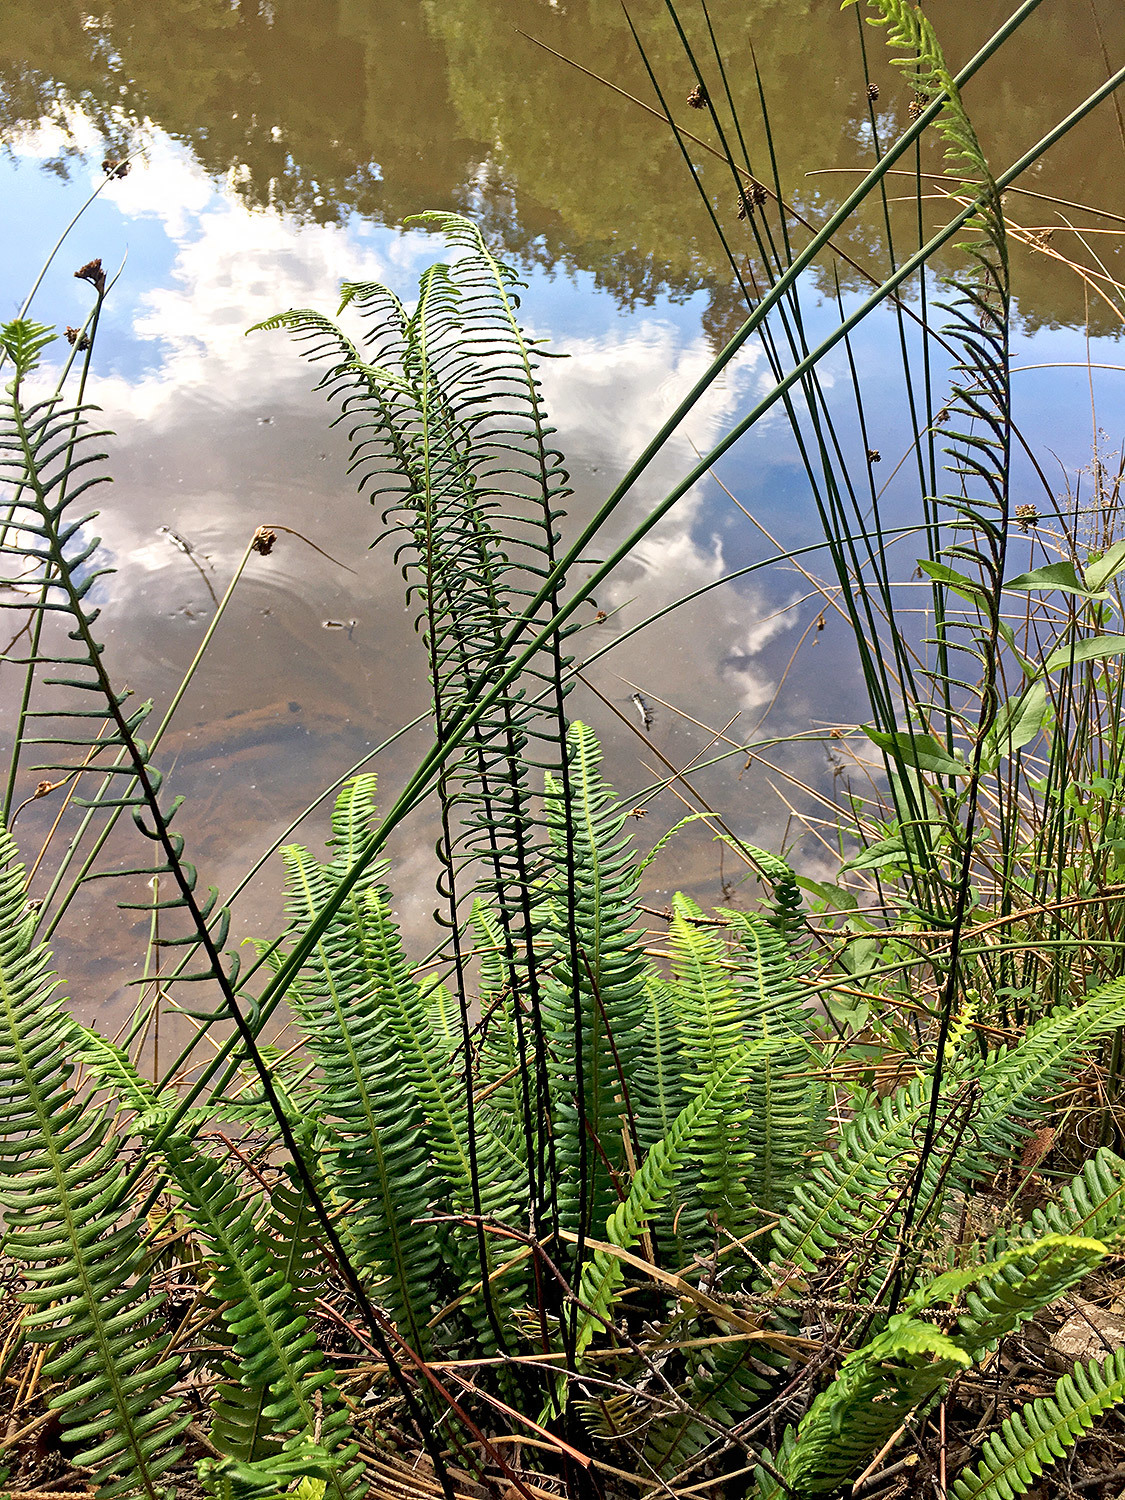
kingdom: Plantae
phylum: Tracheophyta
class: Polypodiopsida
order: Polypodiales
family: Blechnaceae
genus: Struthiopteris
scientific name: Struthiopteris spicant
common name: Deer fern
